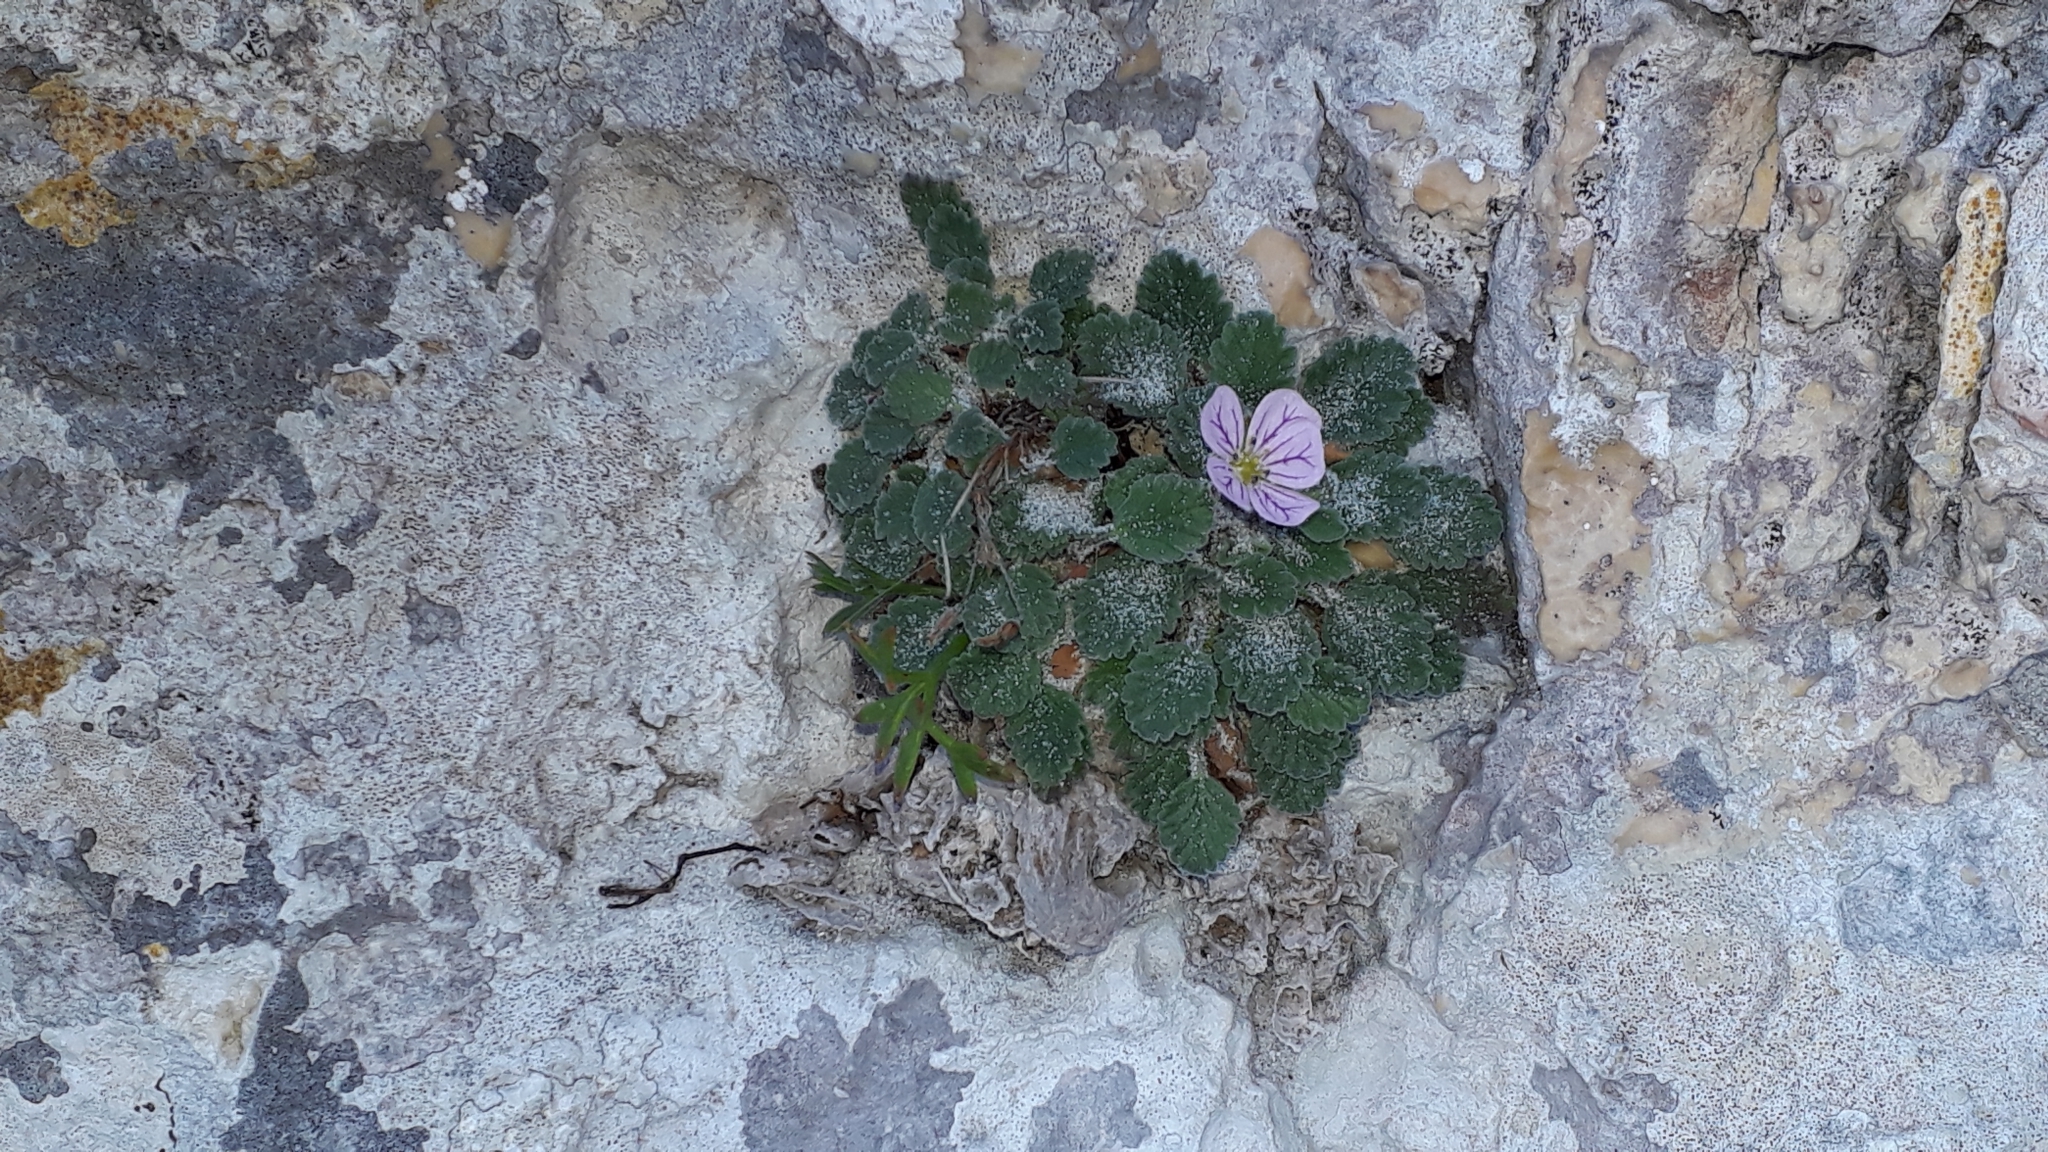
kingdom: Plantae
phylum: Tracheophyta
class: Magnoliopsida
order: Geraniales
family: Geraniaceae
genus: Erodium
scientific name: Erodium corsicum
